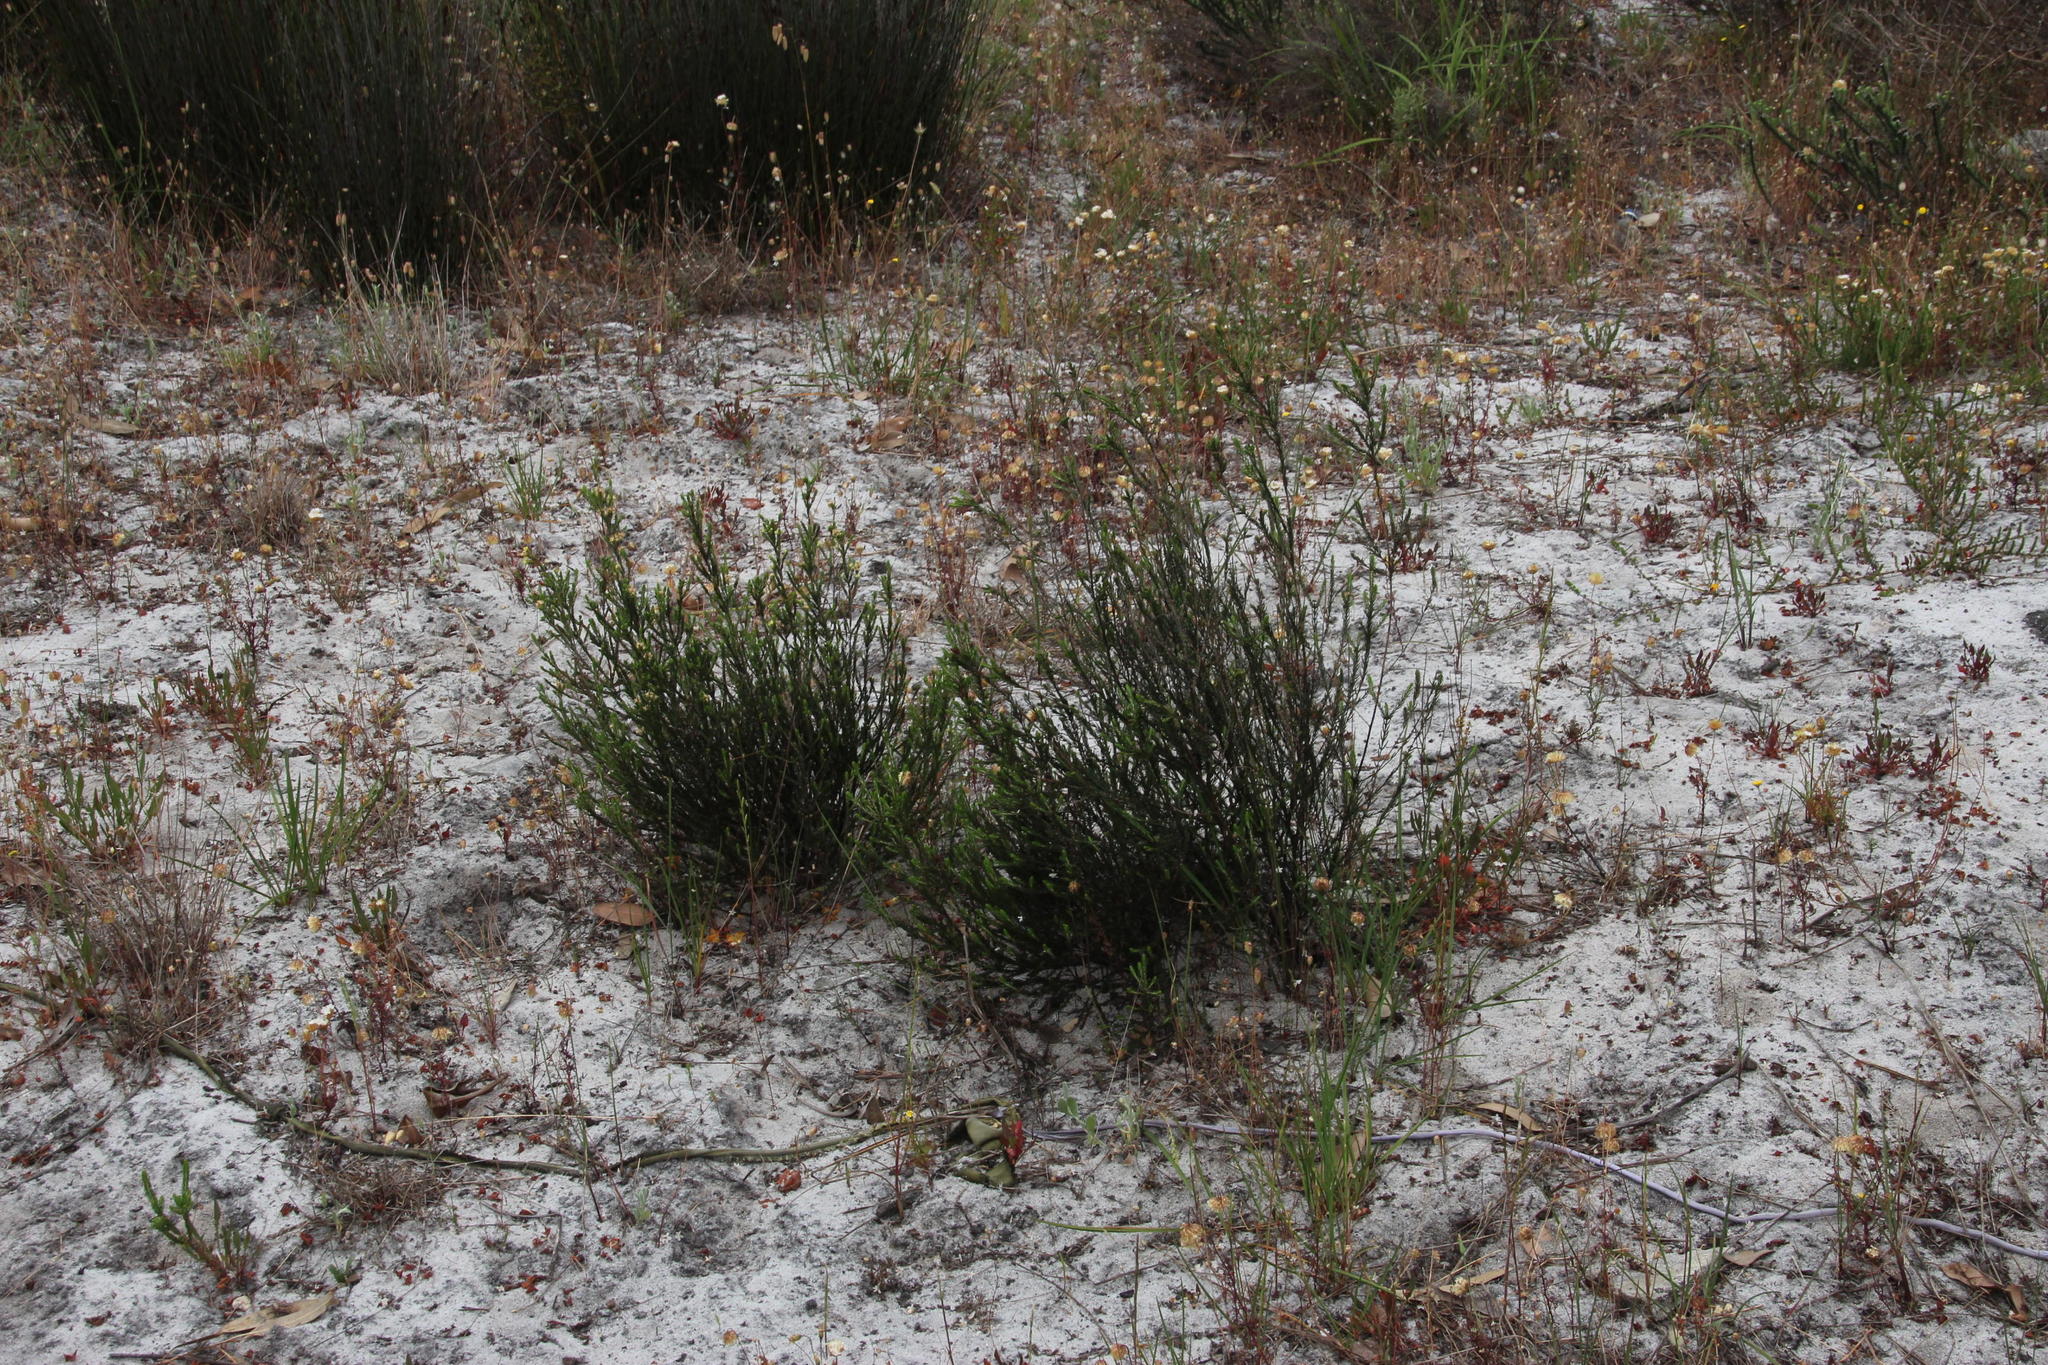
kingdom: Plantae
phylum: Tracheophyta
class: Magnoliopsida
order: Malvales
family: Thymelaeaceae
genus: Passerina
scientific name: Passerina corymbosa
